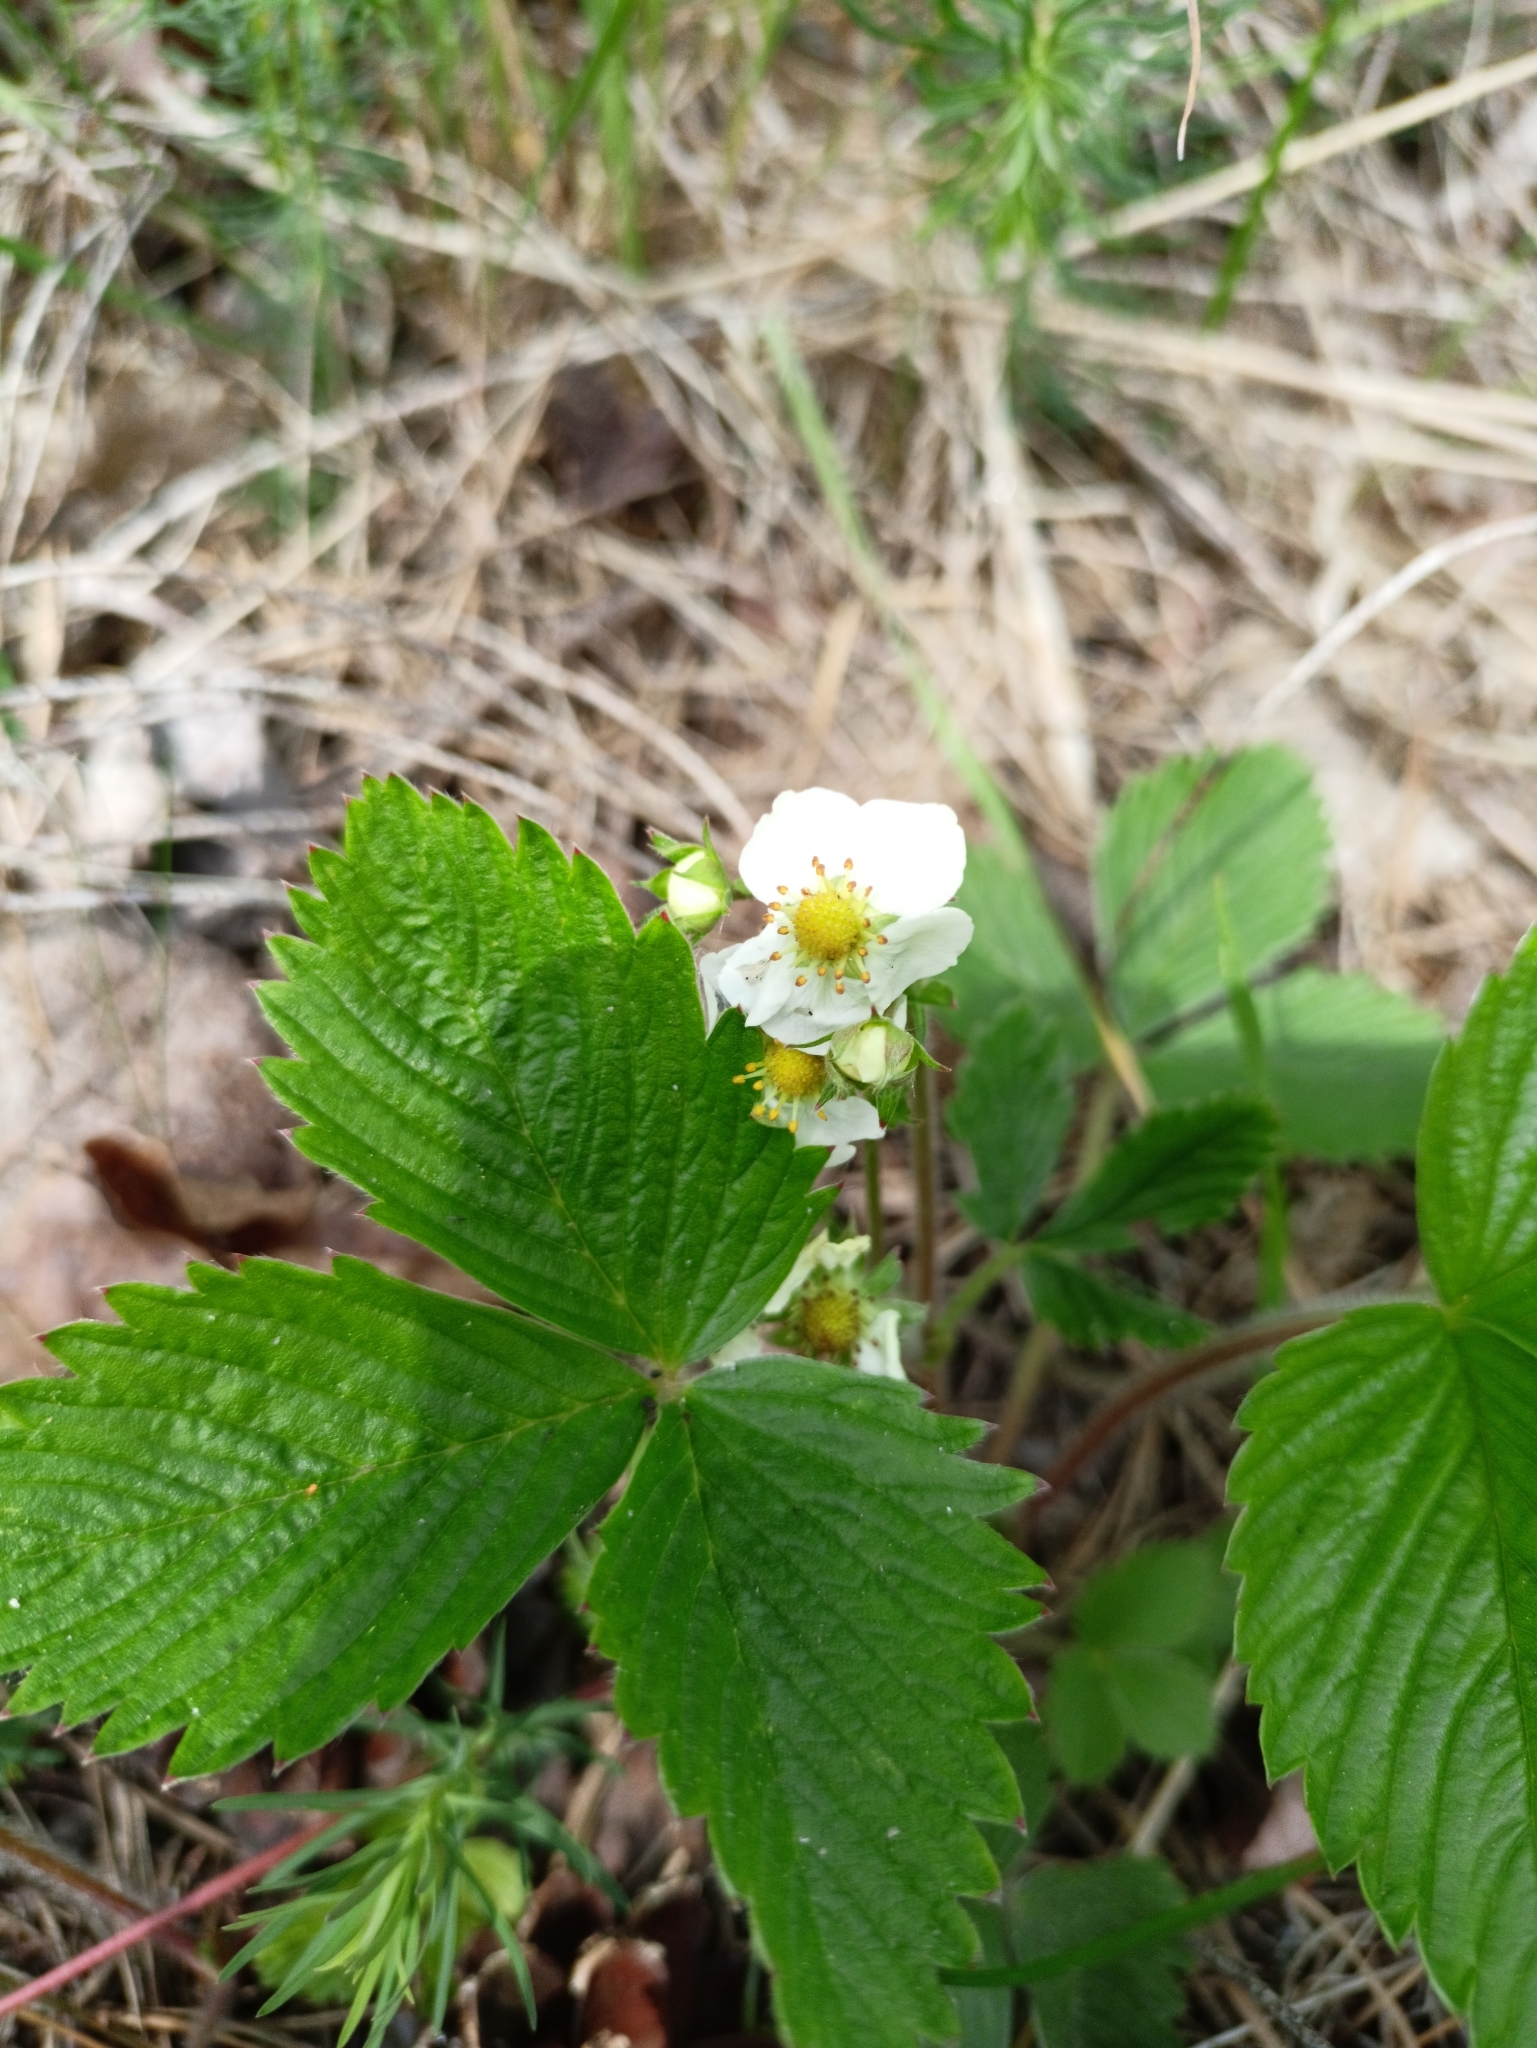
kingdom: Plantae
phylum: Tracheophyta
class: Magnoliopsida
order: Rosales
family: Rosaceae
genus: Fragaria
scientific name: Fragaria moschata
